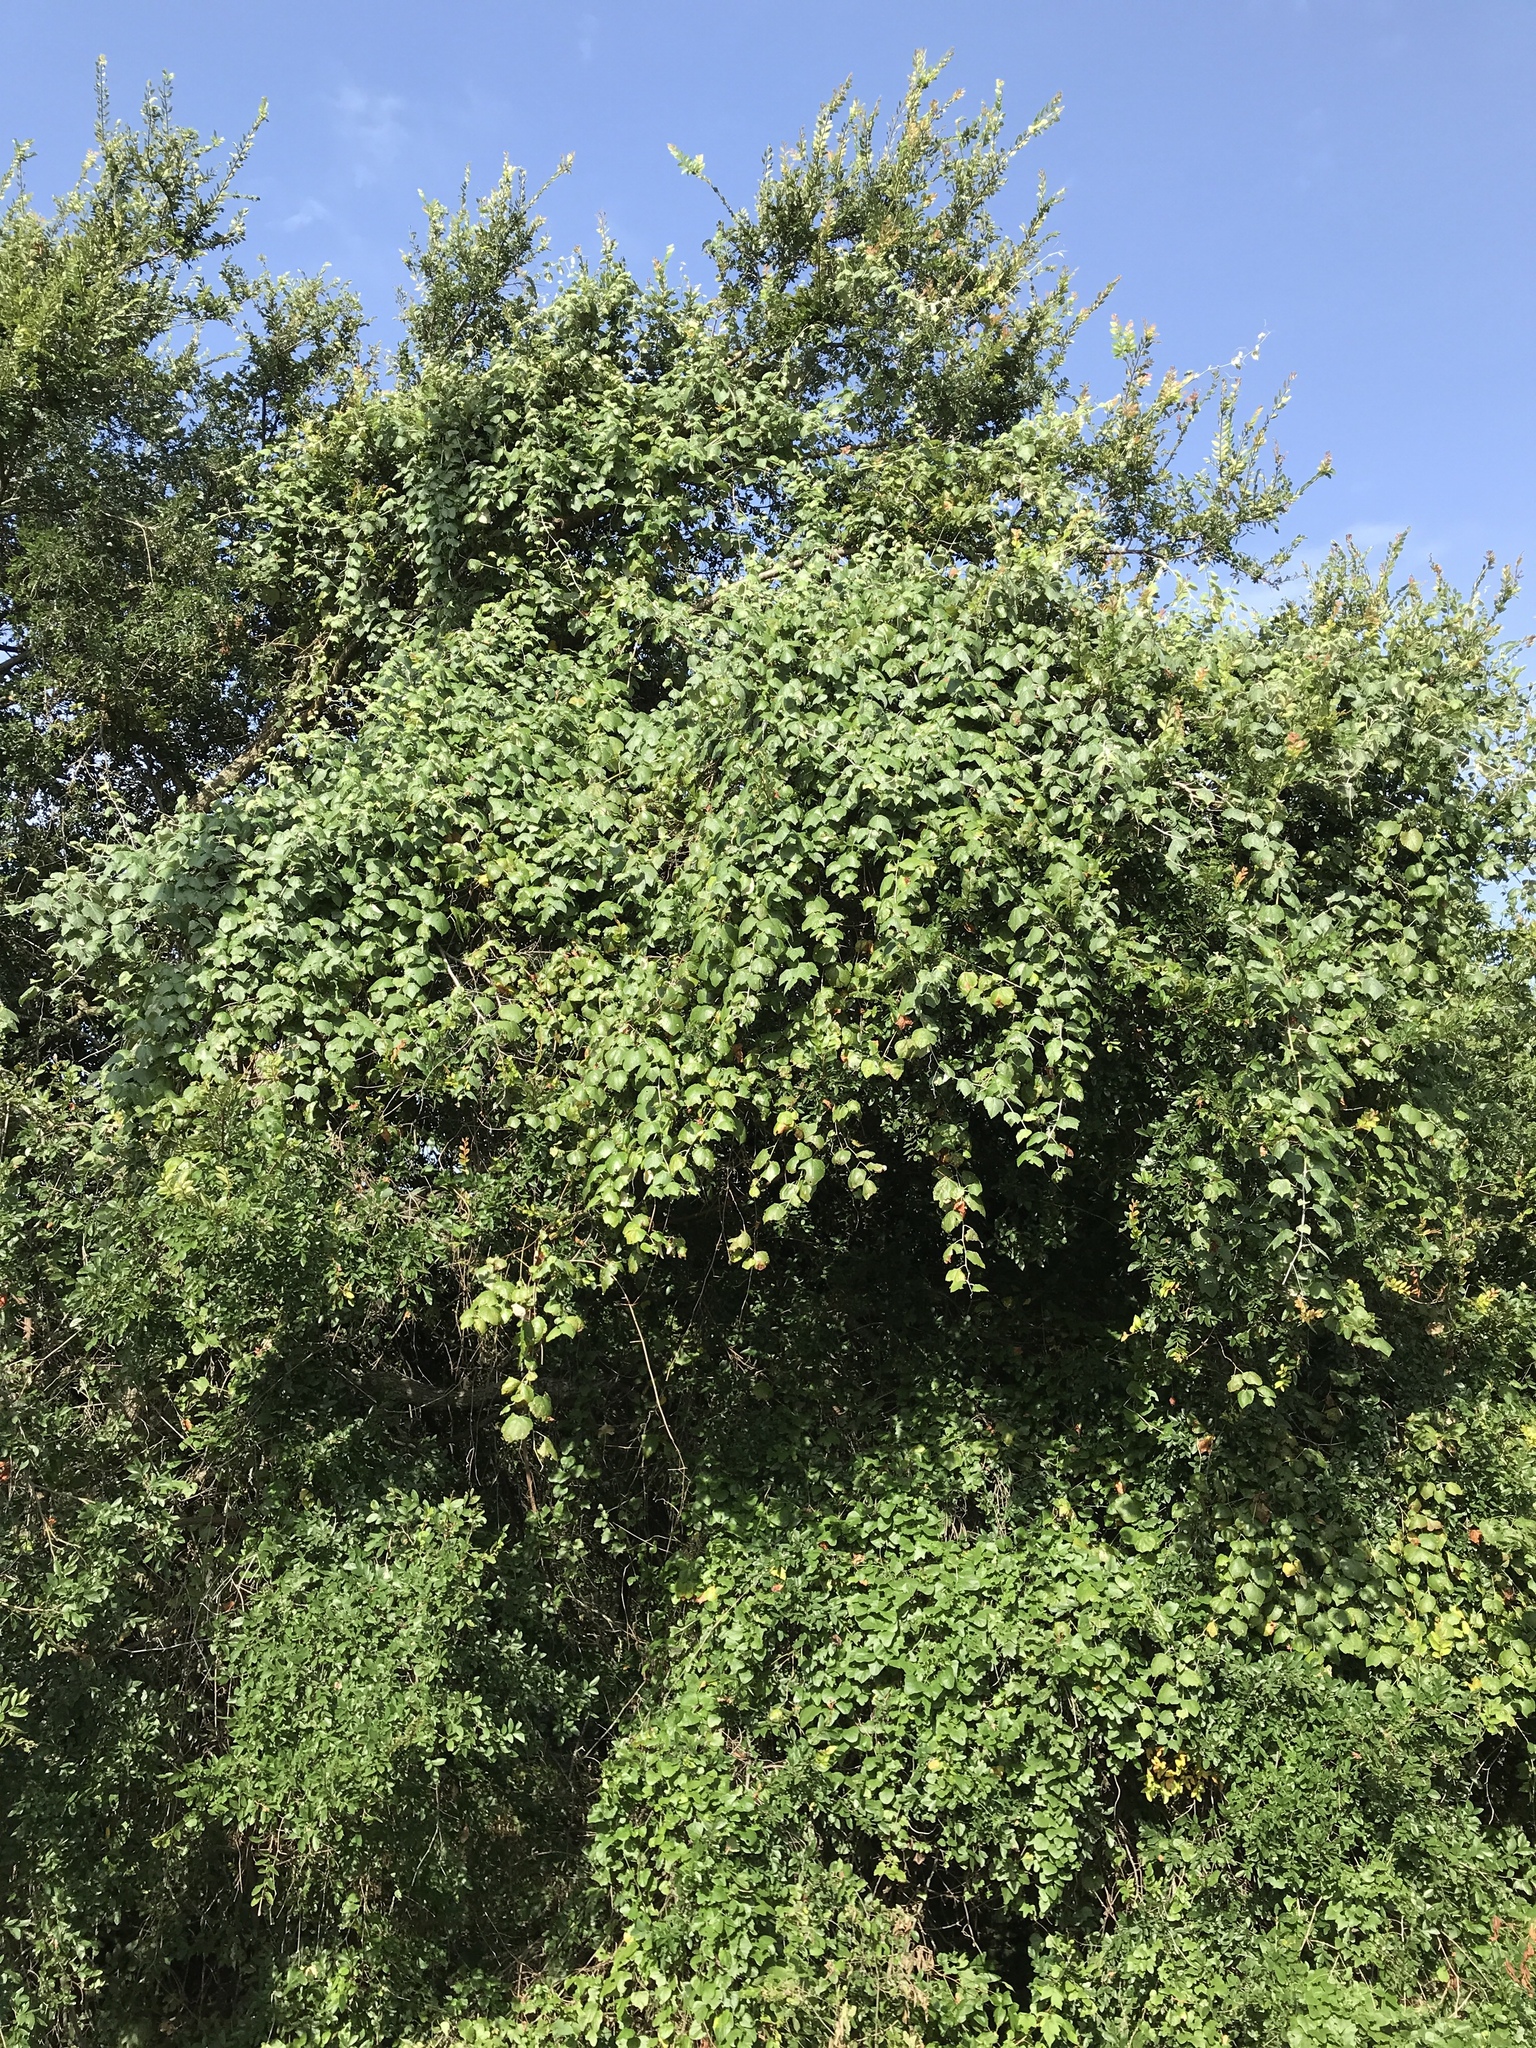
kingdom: Plantae
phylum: Tracheophyta
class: Magnoliopsida
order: Vitales
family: Vitaceae
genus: Vitis
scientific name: Vitis mustangensis
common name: Mustang grape
